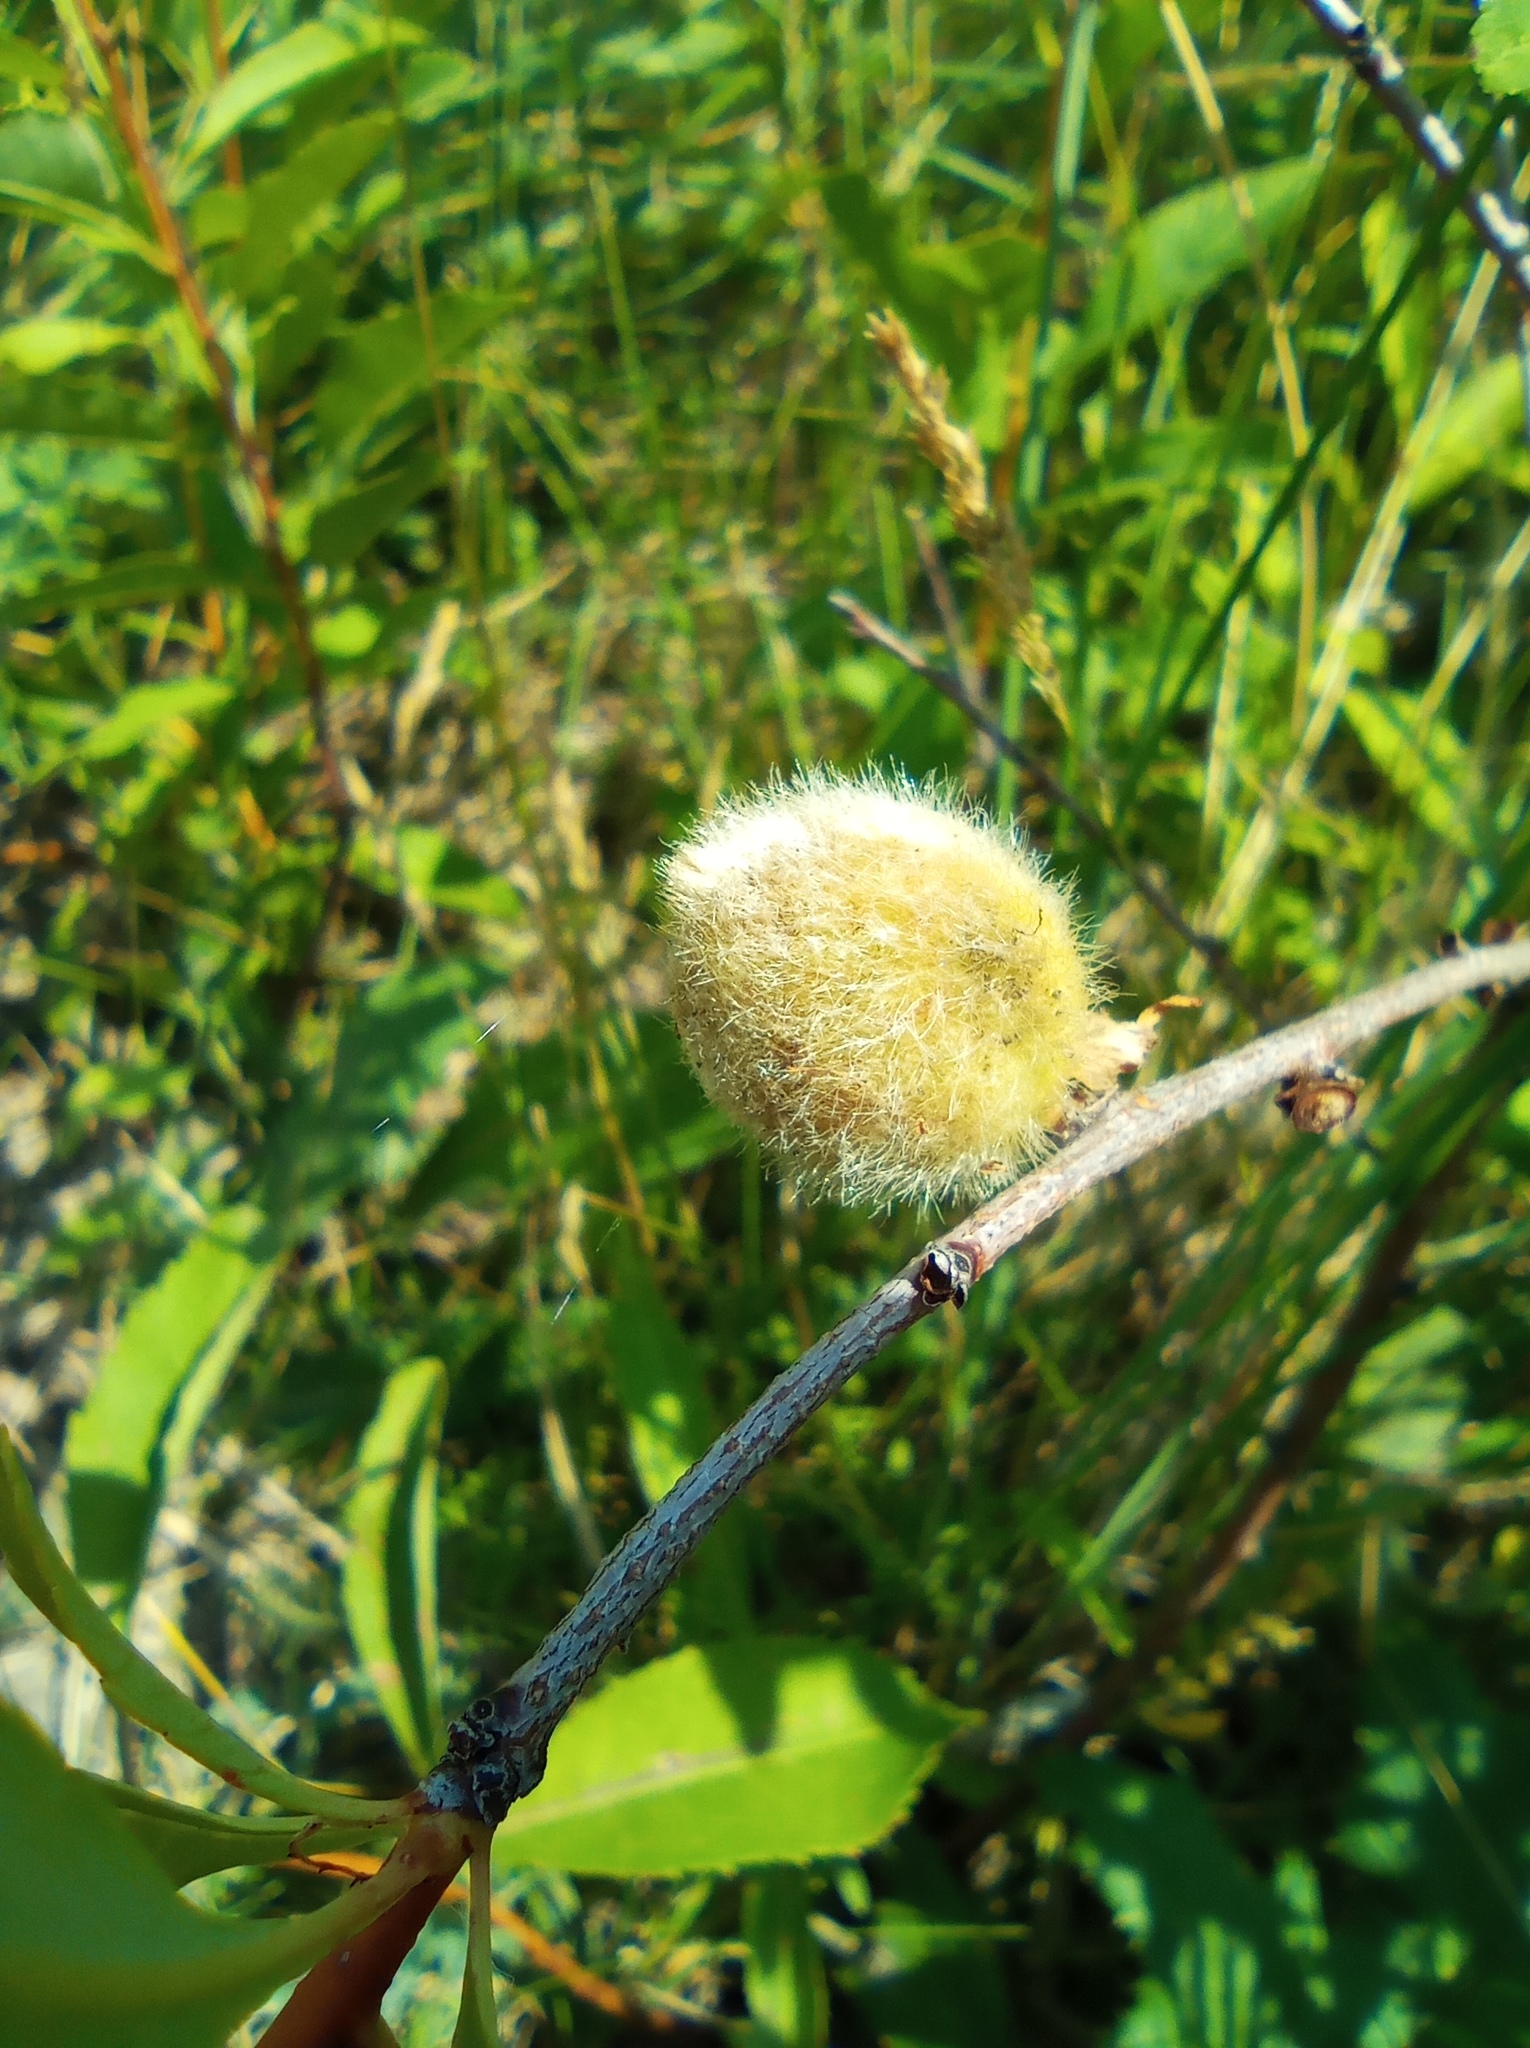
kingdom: Plantae
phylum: Tracheophyta
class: Magnoliopsida
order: Rosales
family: Rosaceae
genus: Prunus
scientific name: Prunus tenella
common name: Dwarf russian almond
